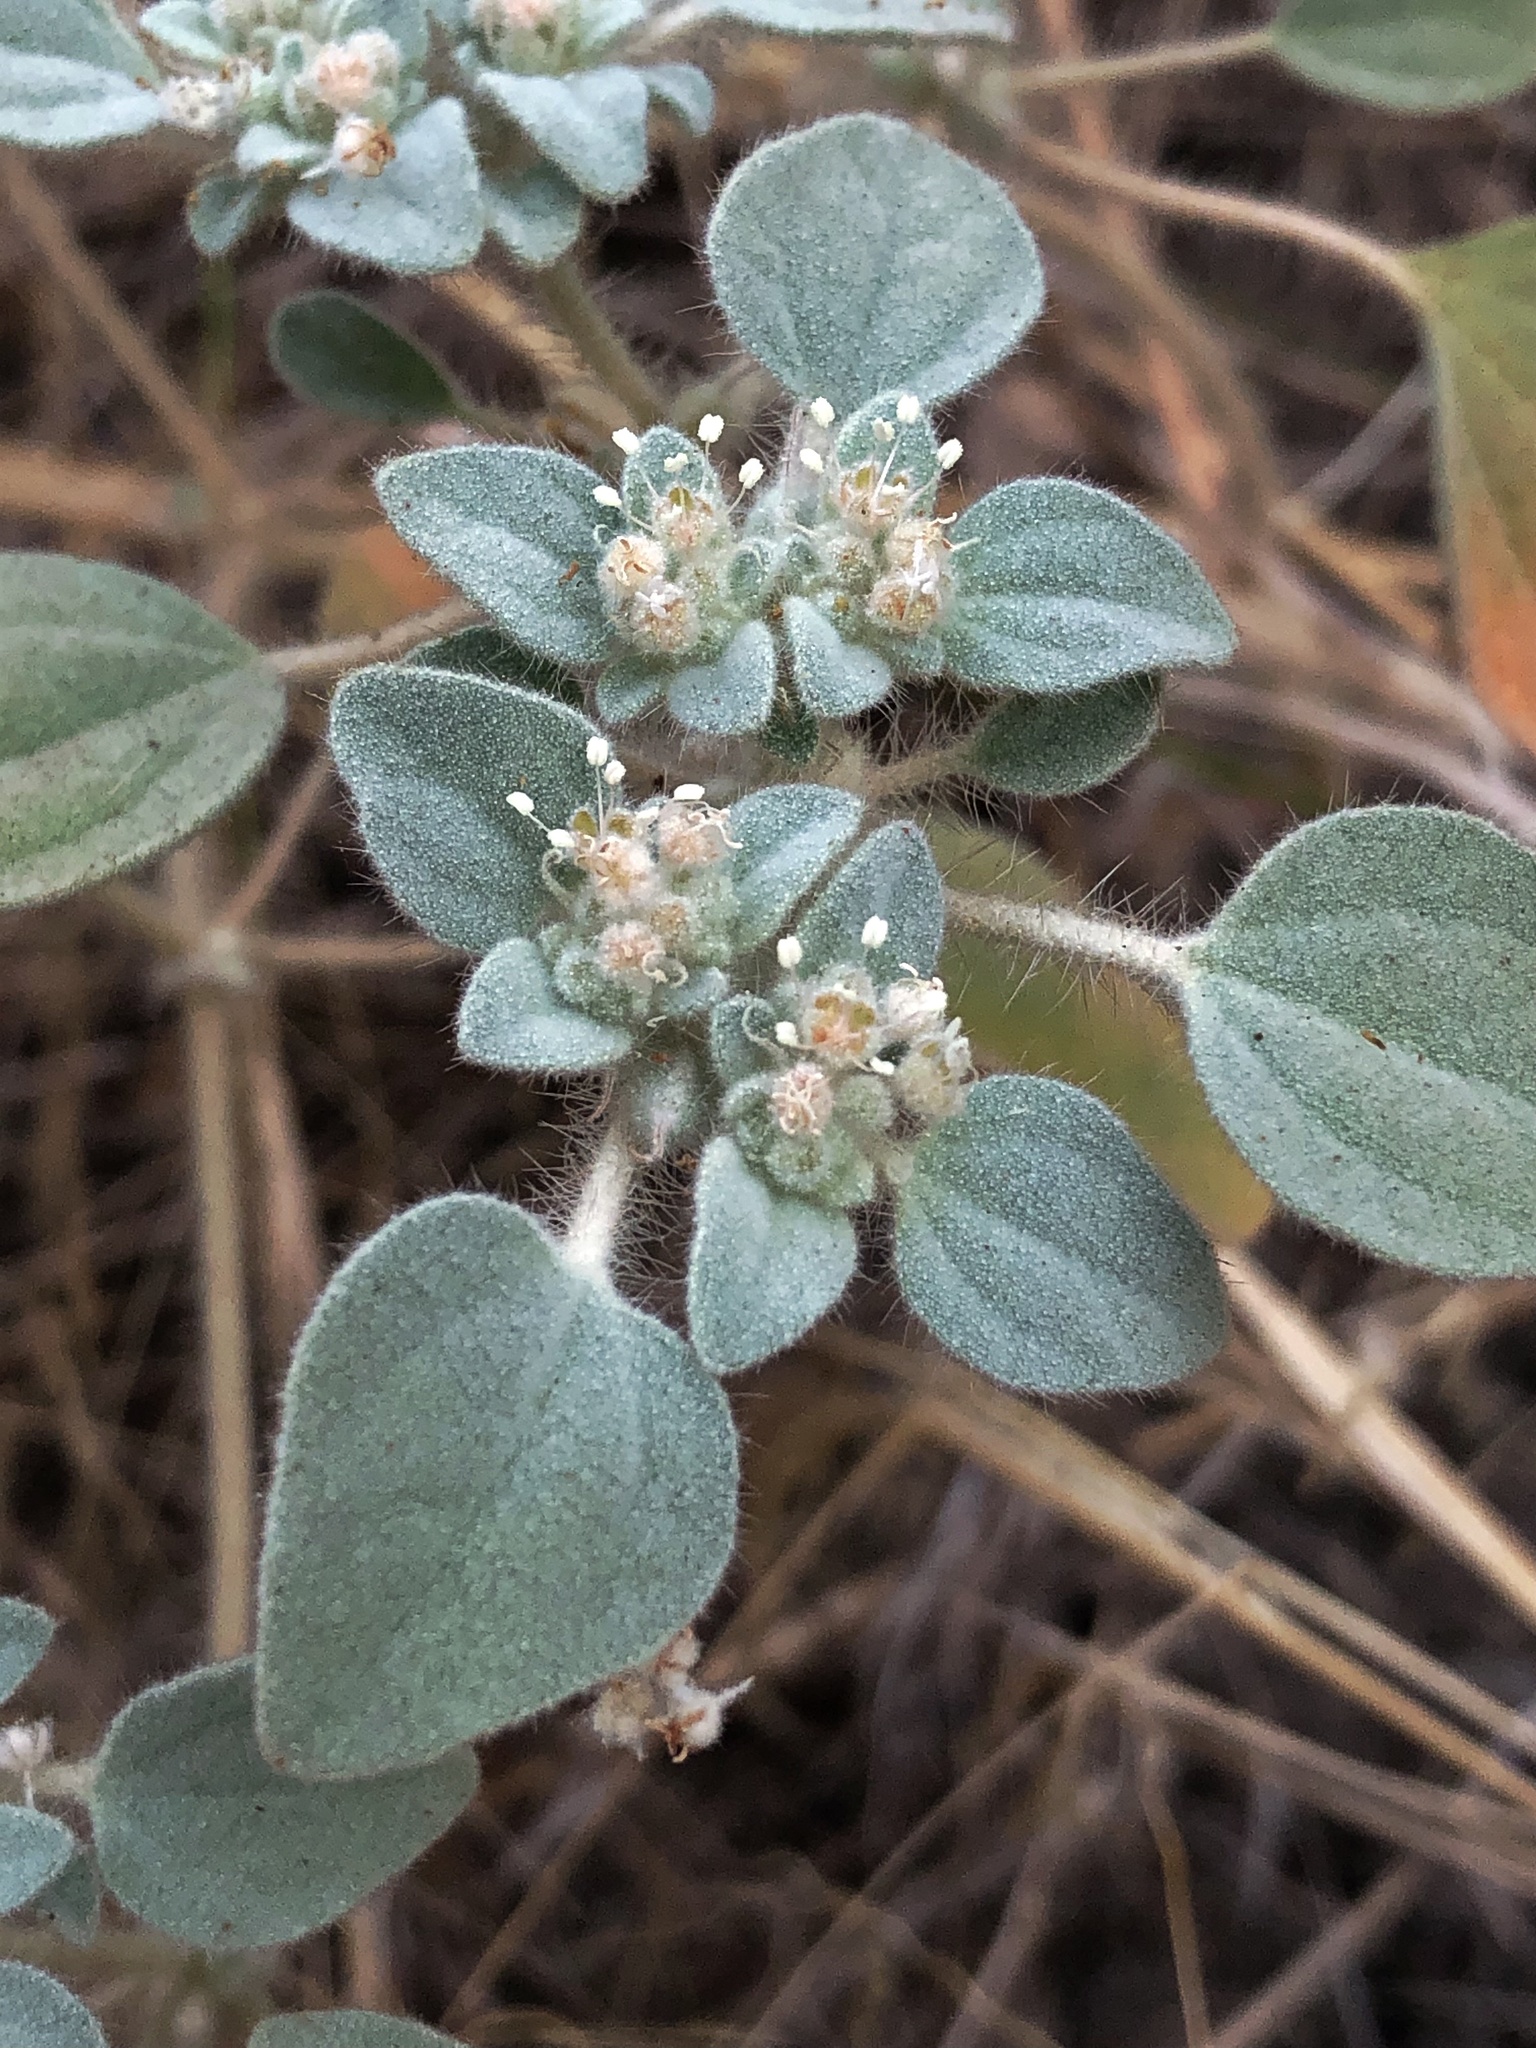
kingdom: Plantae
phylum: Tracheophyta
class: Magnoliopsida
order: Malpighiales
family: Euphorbiaceae
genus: Croton
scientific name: Croton setiger
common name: Dove weed
